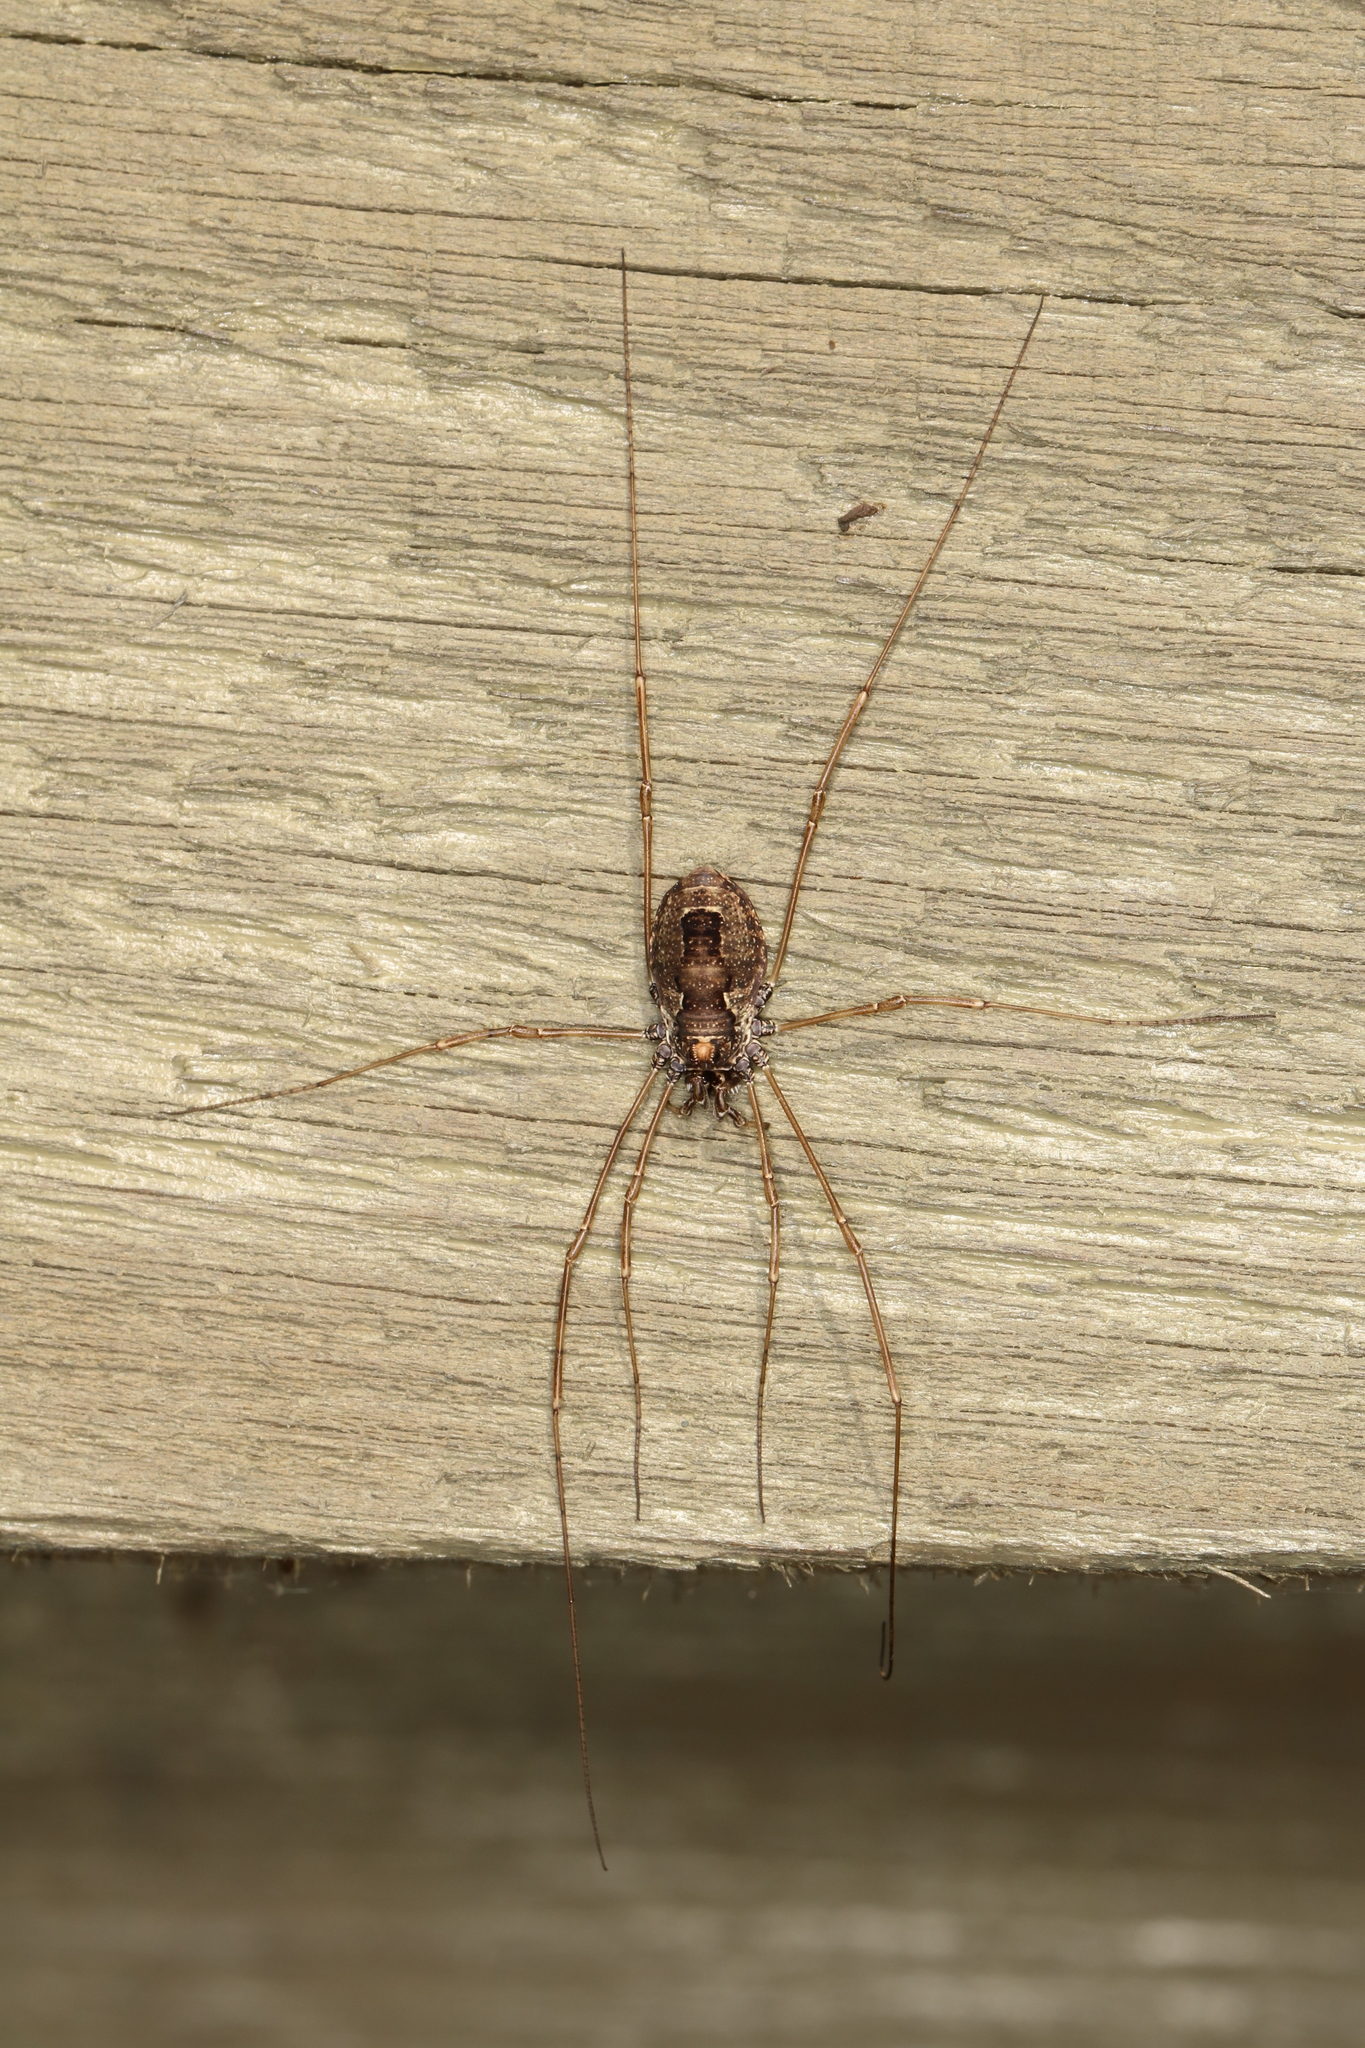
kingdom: Animalia
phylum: Arthropoda
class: Arachnida
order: Opiliones
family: Phalangiidae
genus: Platybunus
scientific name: Platybunus pinetorum
